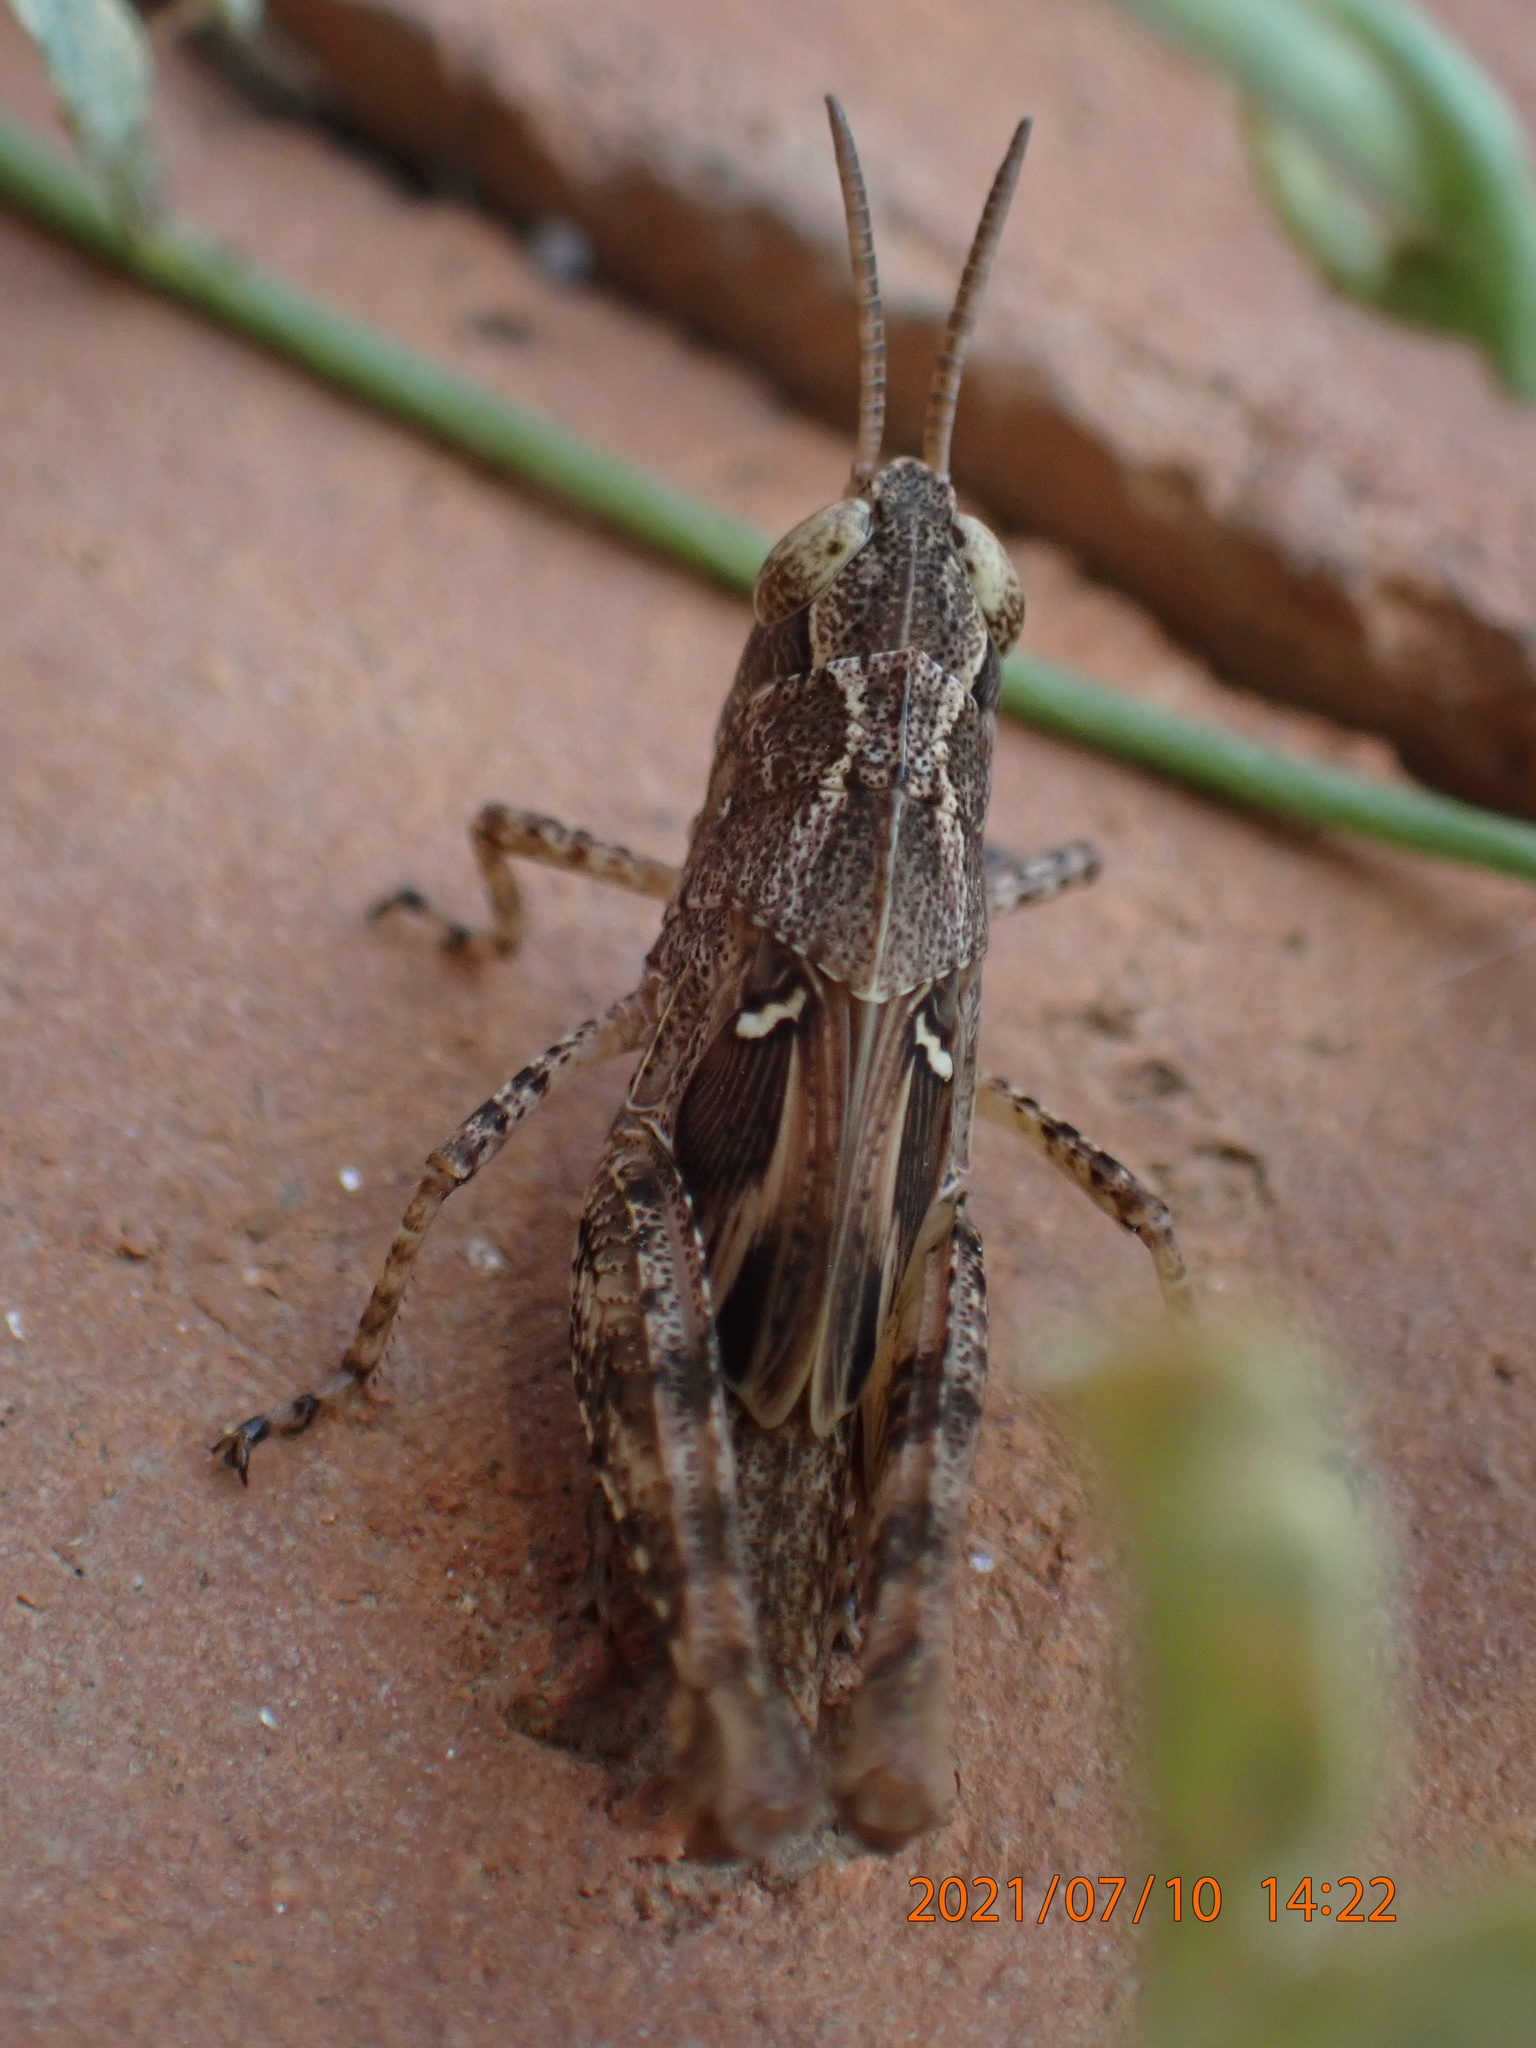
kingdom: Animalia
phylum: Arthropoda
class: Insecta
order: Orthoptera
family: Acrididae
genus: Aiolopus
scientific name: Aiolopus strepens
